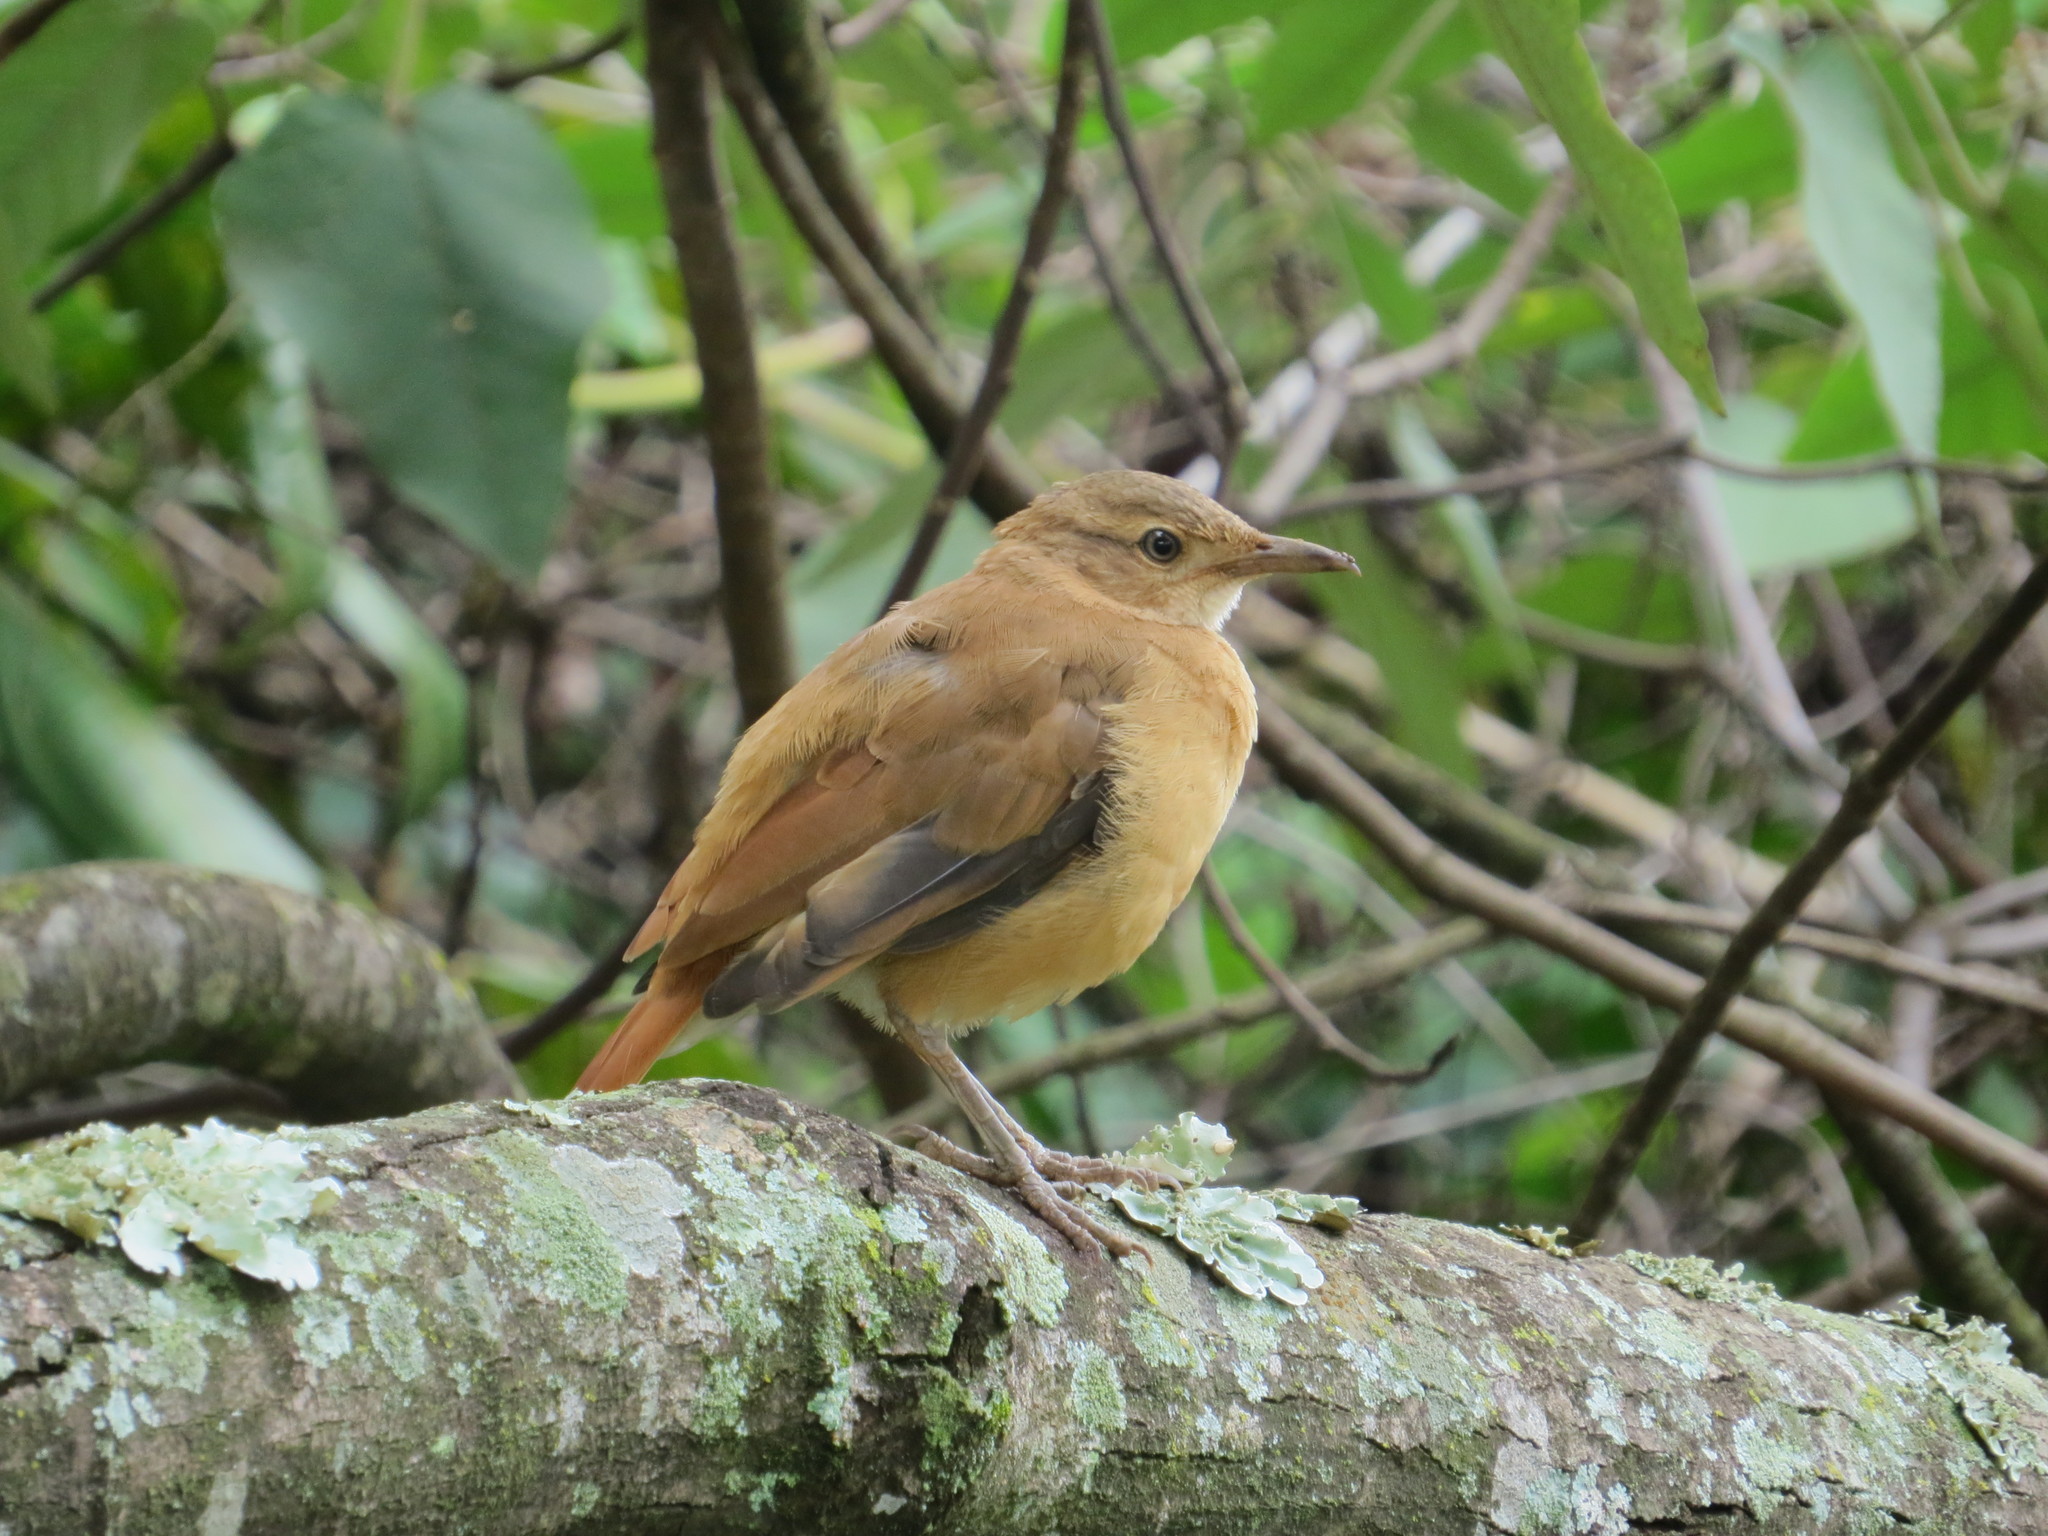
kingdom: Animalia
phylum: Chordata
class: Aves
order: Passeriformes
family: Furnariidae
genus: Furnarius
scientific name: Furnarius rufus
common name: Rufous hornero
